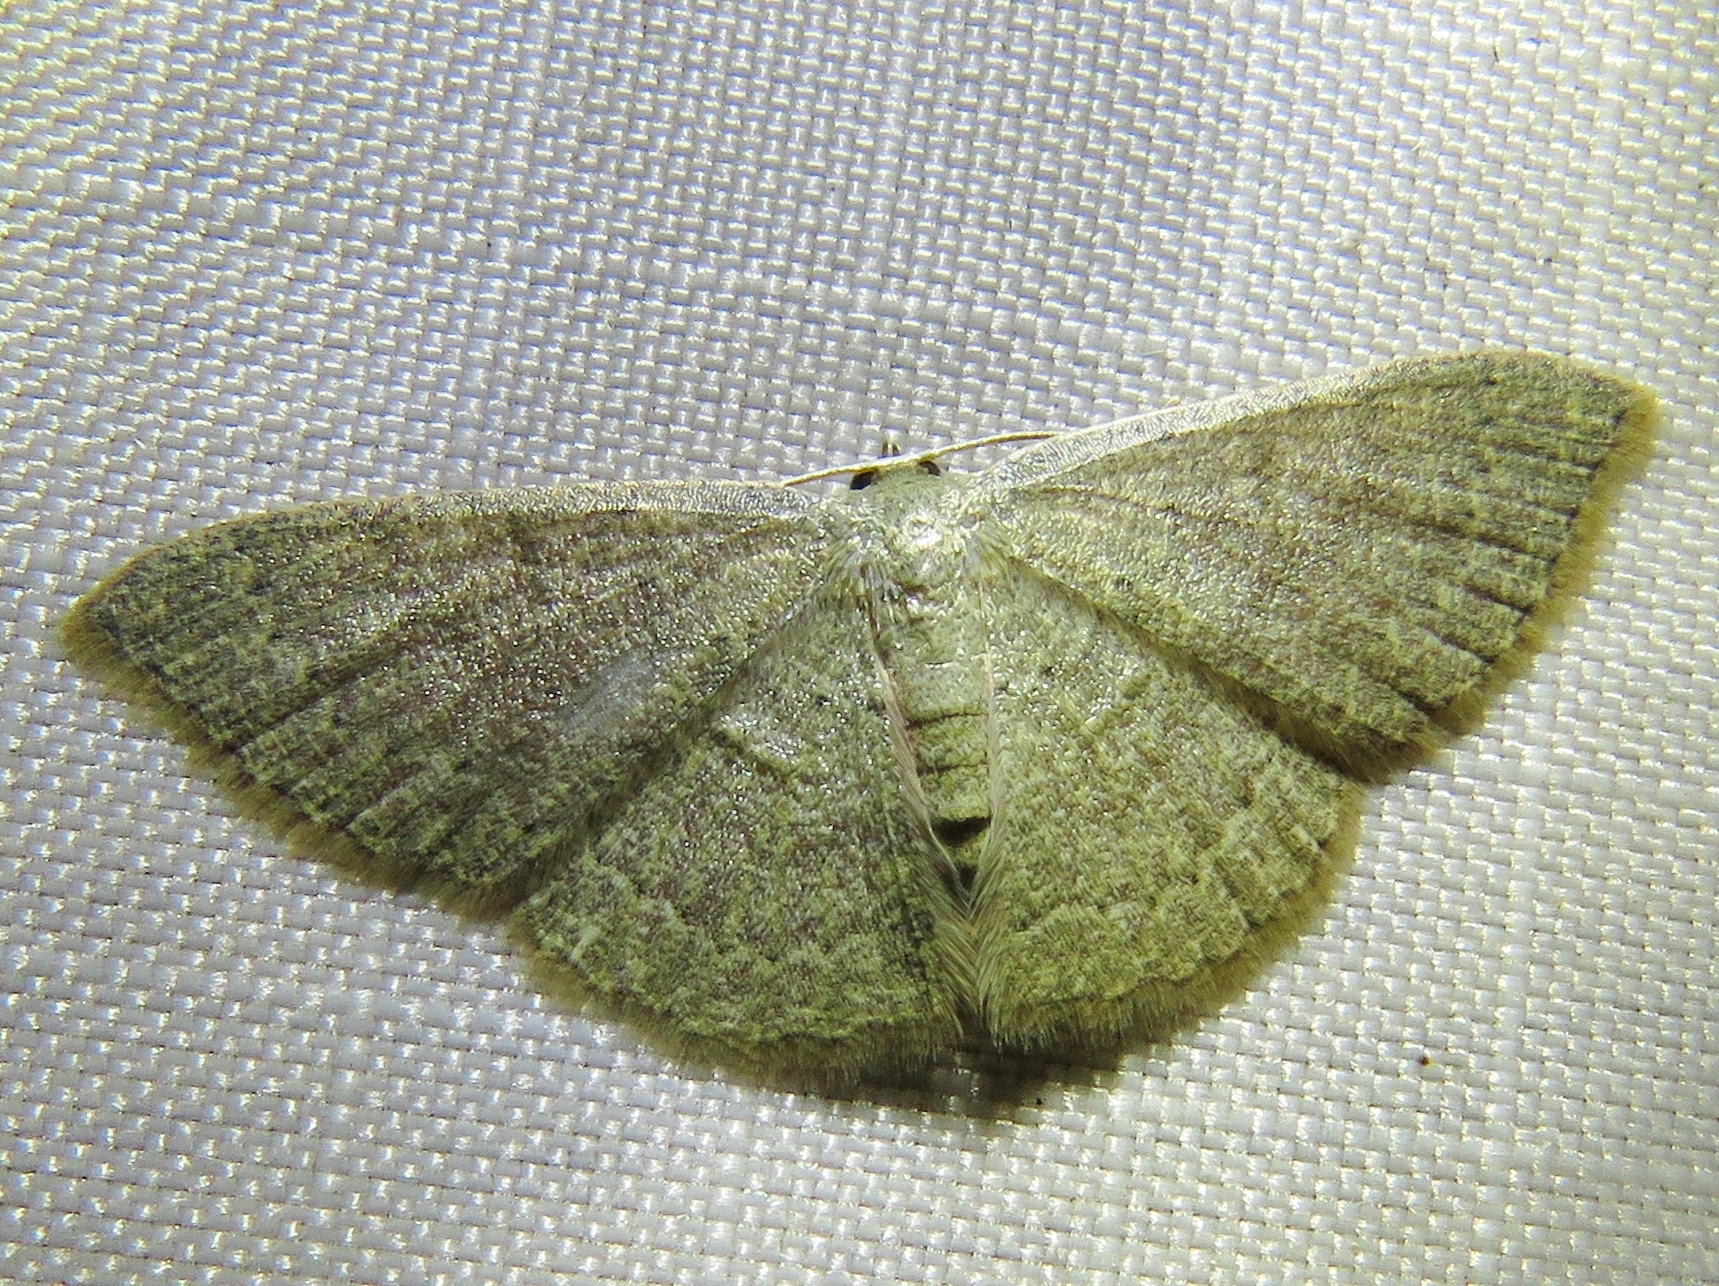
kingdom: Animalia
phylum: Arthropoda
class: Insecta
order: Lepidoptera
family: Geometridae
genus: Pleuroprucha
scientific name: Pleuroprucha insulsaria
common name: Common tan wave
